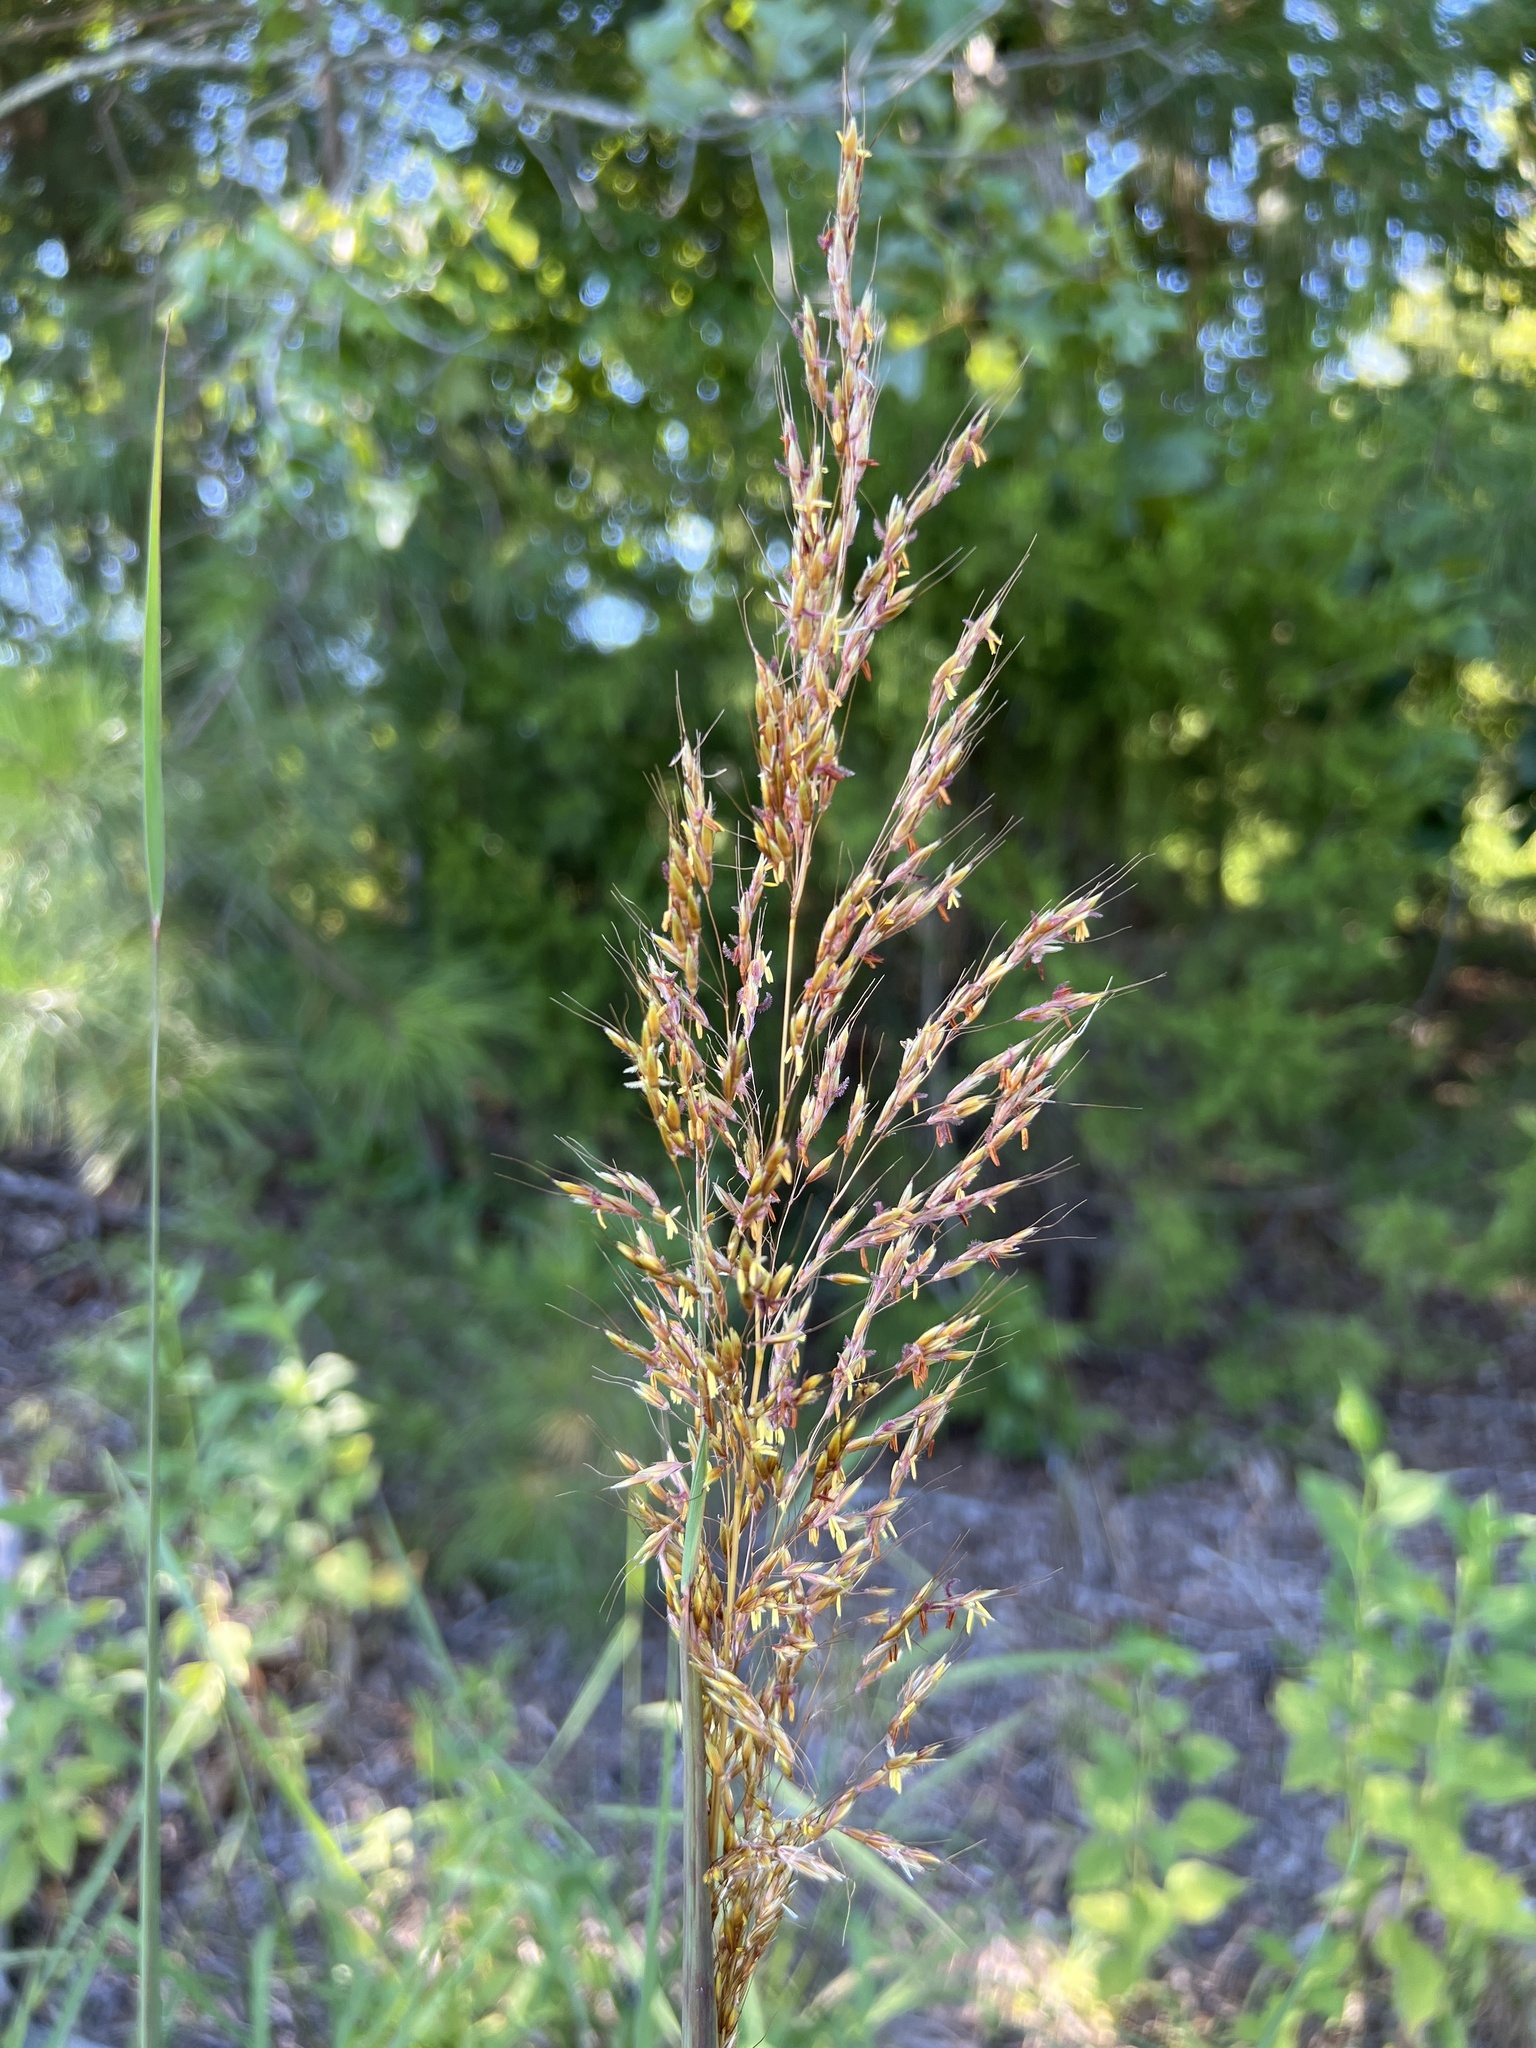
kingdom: Plantae
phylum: Tracheophyta
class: Liliopsida
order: Poales
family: Poaceae
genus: Sorghastrum
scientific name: Sorghastrum nutans
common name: Indian grass
